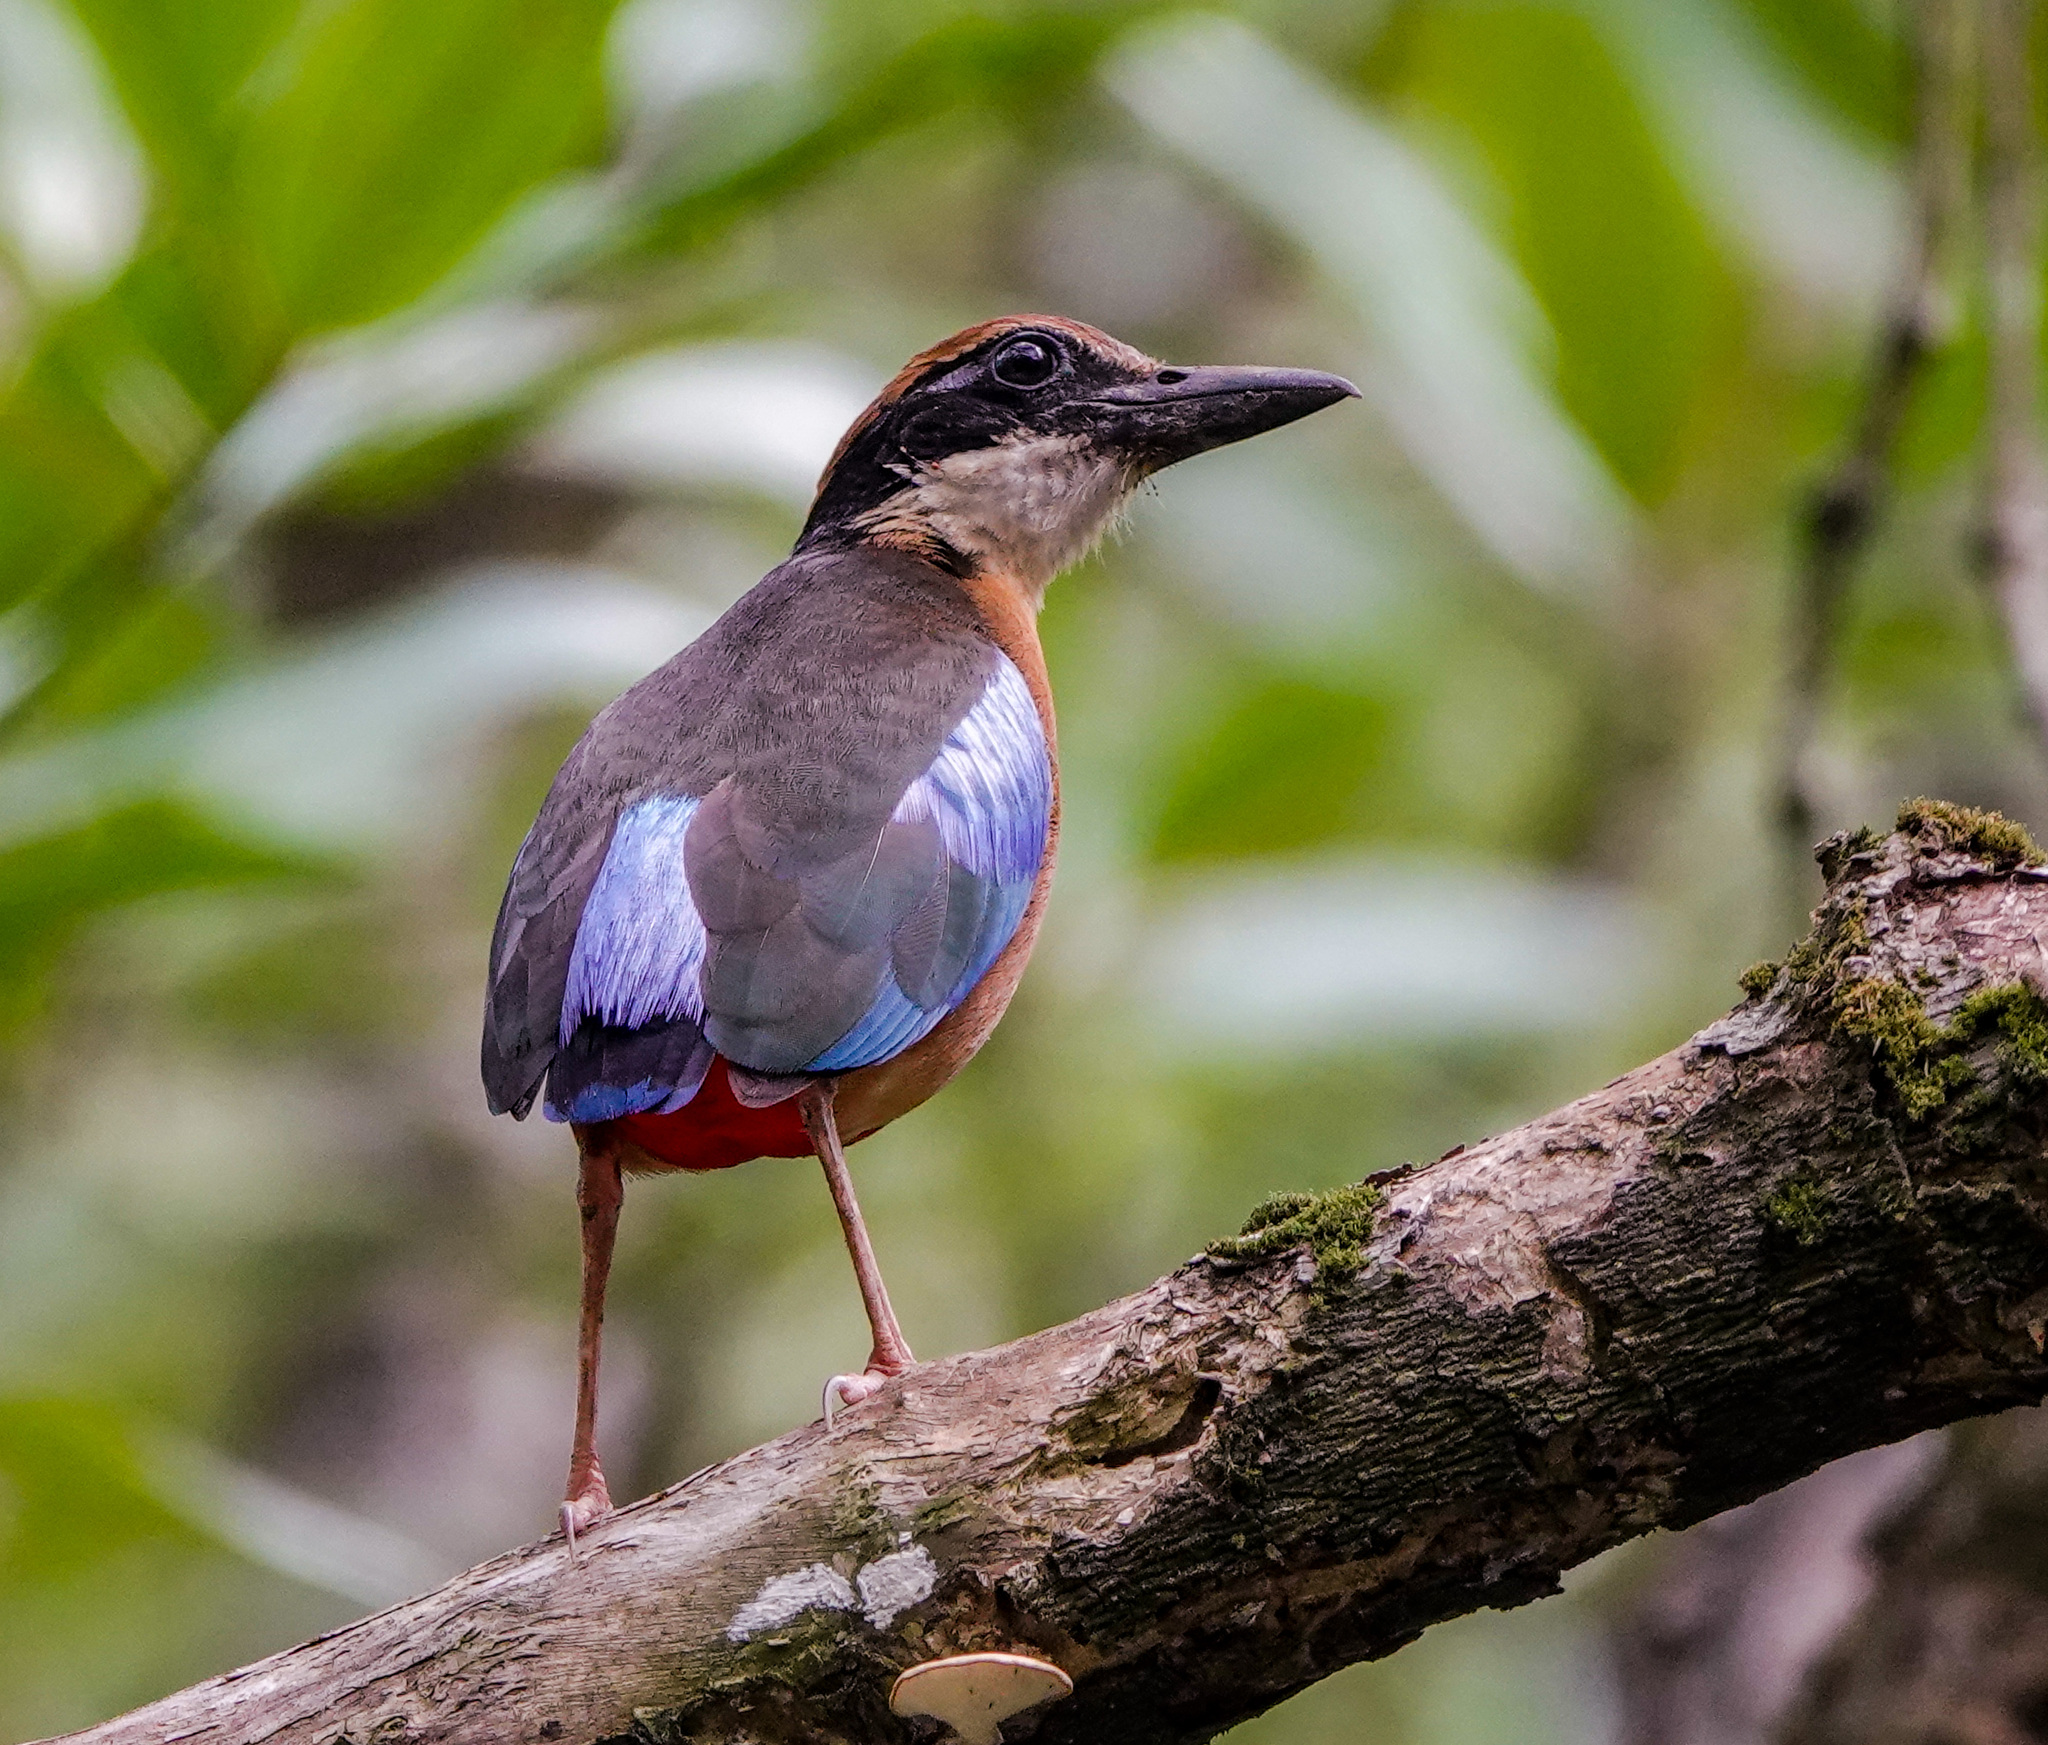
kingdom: Animalia
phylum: Chordata
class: Aves
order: Passeriformes
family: Pittidae
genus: Pitta
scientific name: Pitta megarhyncha
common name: Mangrove pitta
